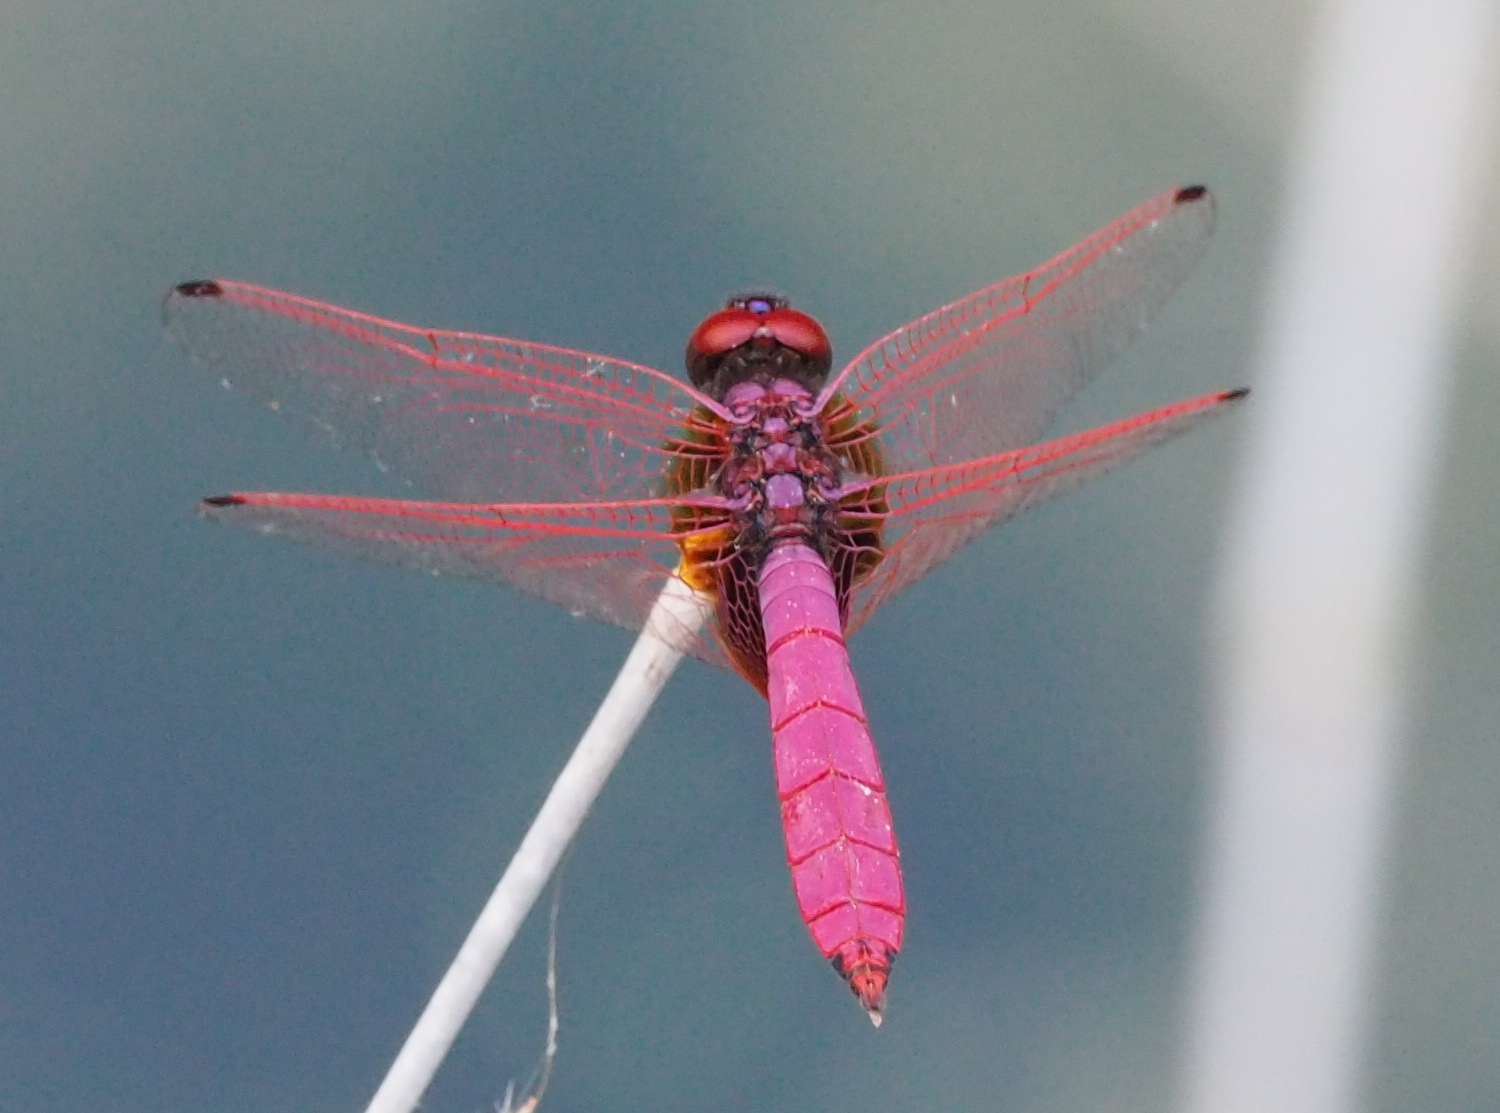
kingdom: Animalia
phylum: Arthropoda
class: Insecta
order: Odonata
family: Libellulidae
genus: Trithemis
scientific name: Trithemis aurora
